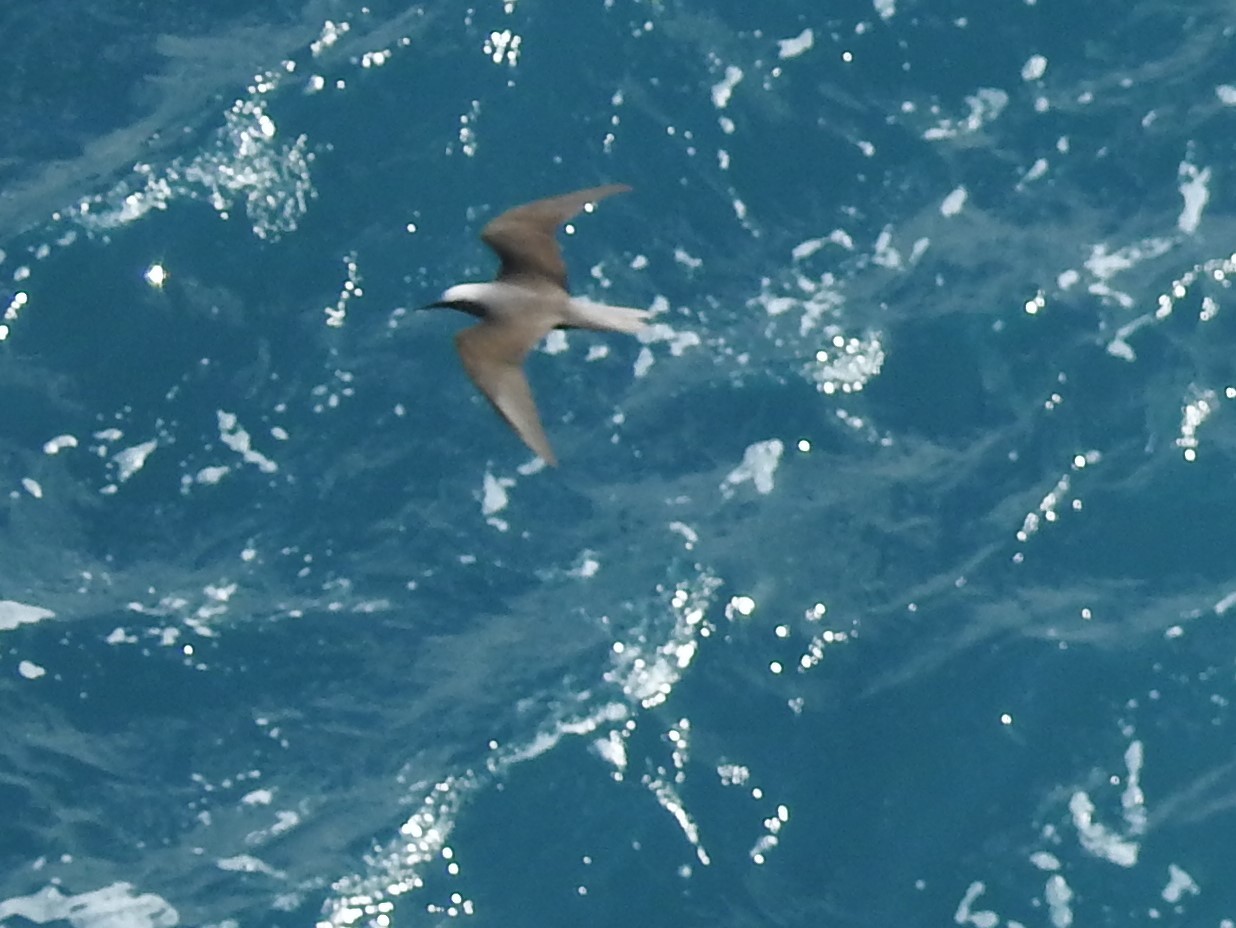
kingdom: Animalia
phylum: Chordata
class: Aves
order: Charadriiformes
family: Laridae
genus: Anous
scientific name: Anous minutus
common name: Black noddy
